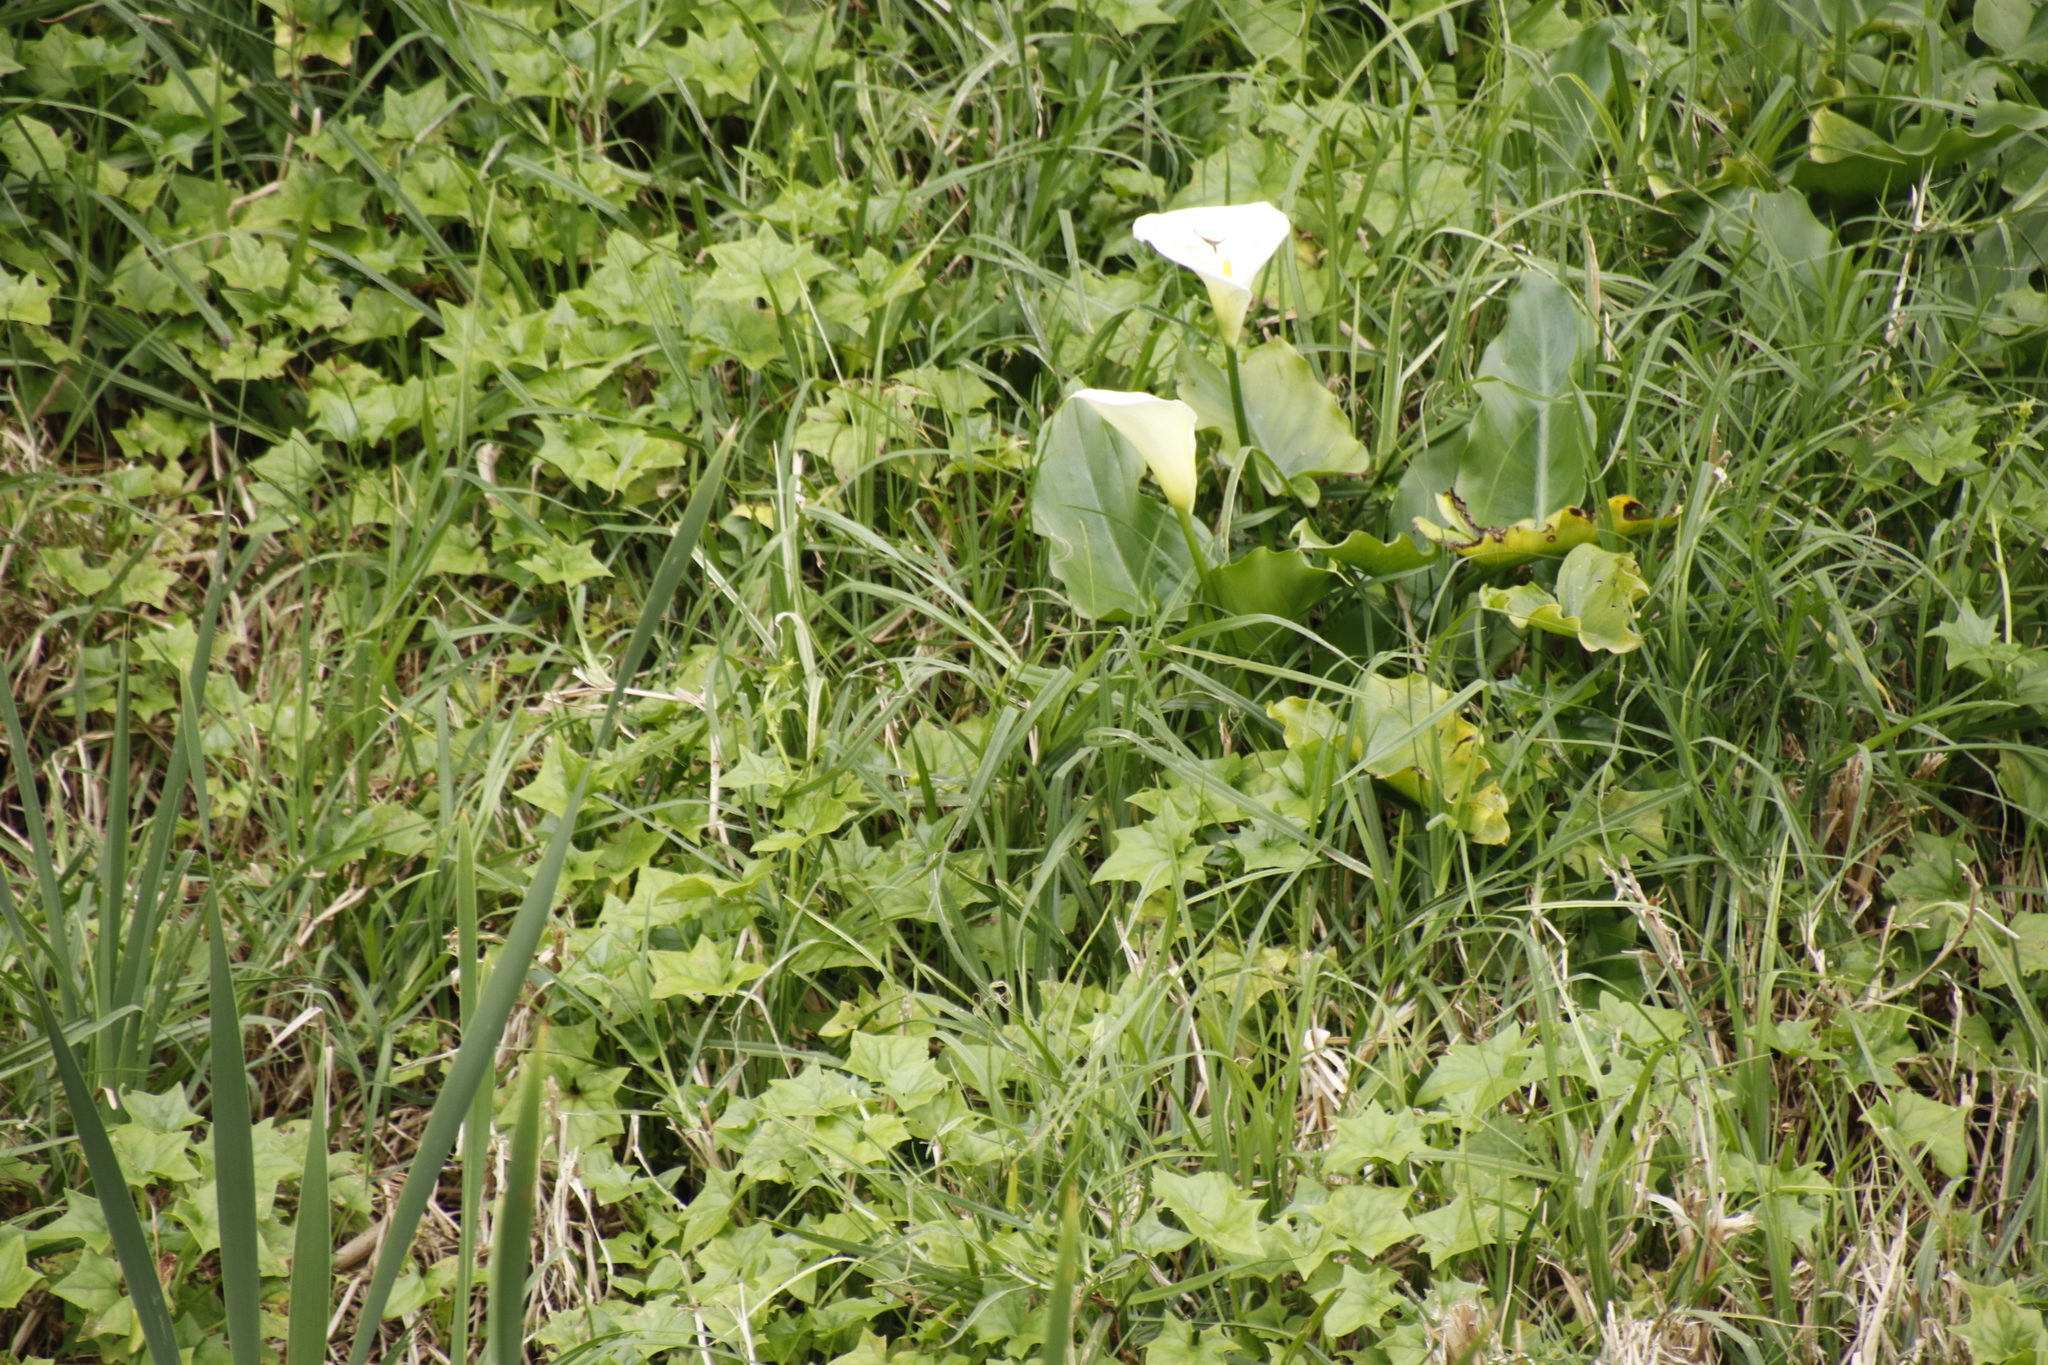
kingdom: Plantae
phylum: Tracheophyta
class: Liliopsida
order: Alismatales
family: Araceae
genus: Zantedeschia
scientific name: Zantedeschia aethiopica
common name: Altar-lily
